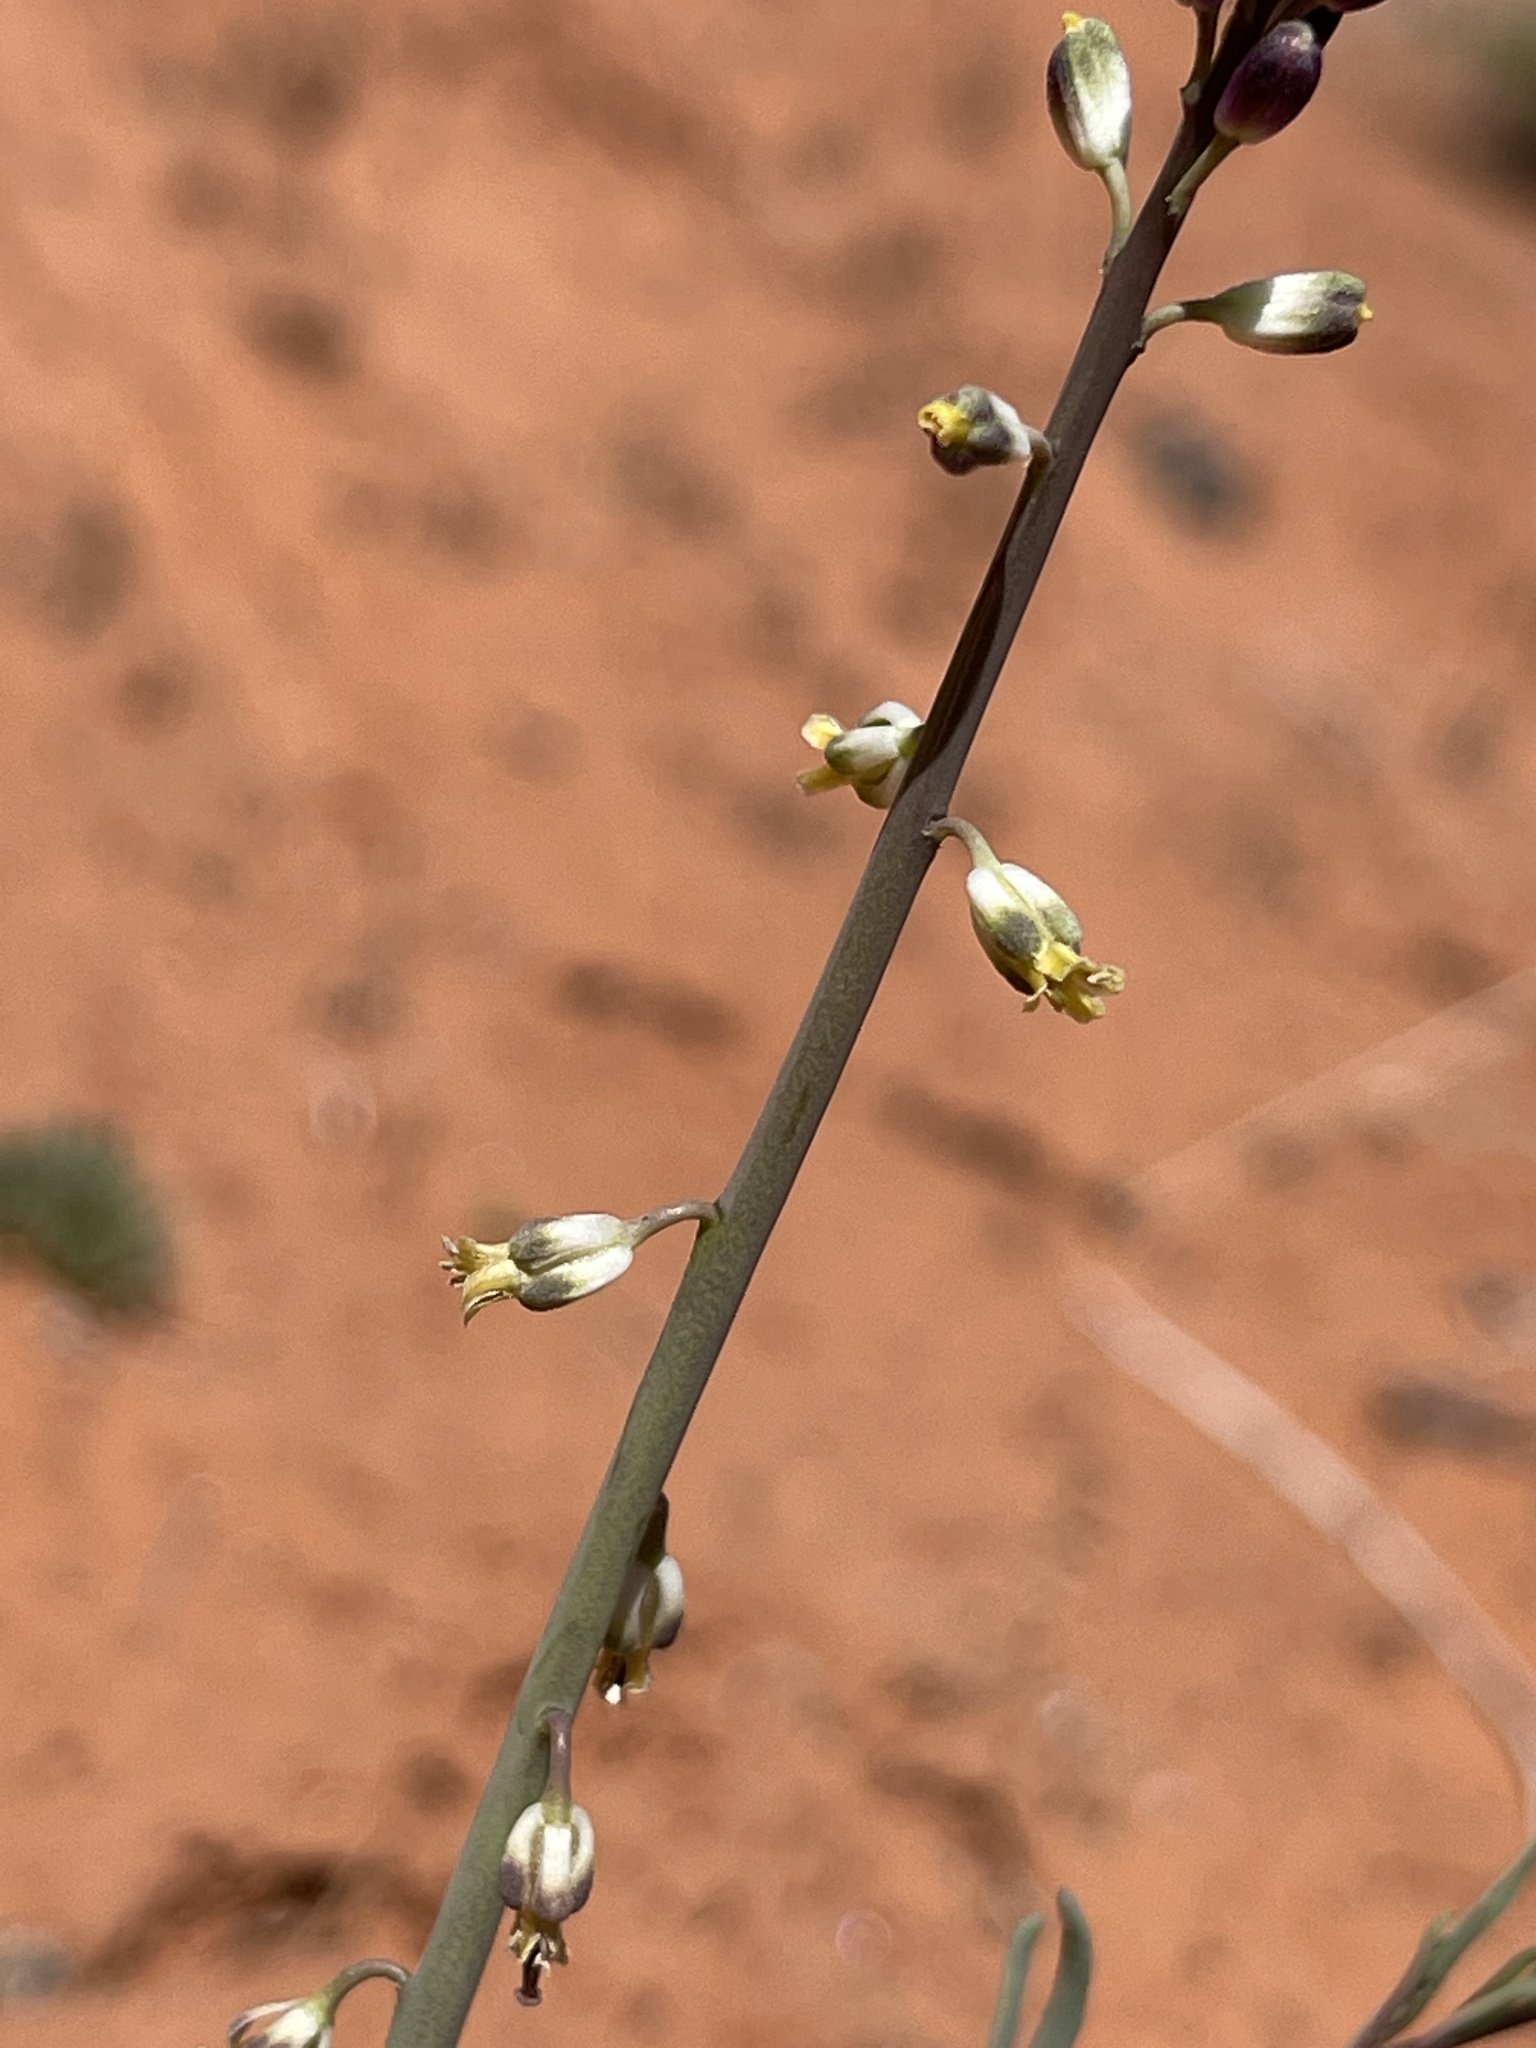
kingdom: Plantae
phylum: Tracheophyta
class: Magnoliopsida
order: Brassicales
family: Brassicaceae
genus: Streptanthus
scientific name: Streptanthus longirostris
